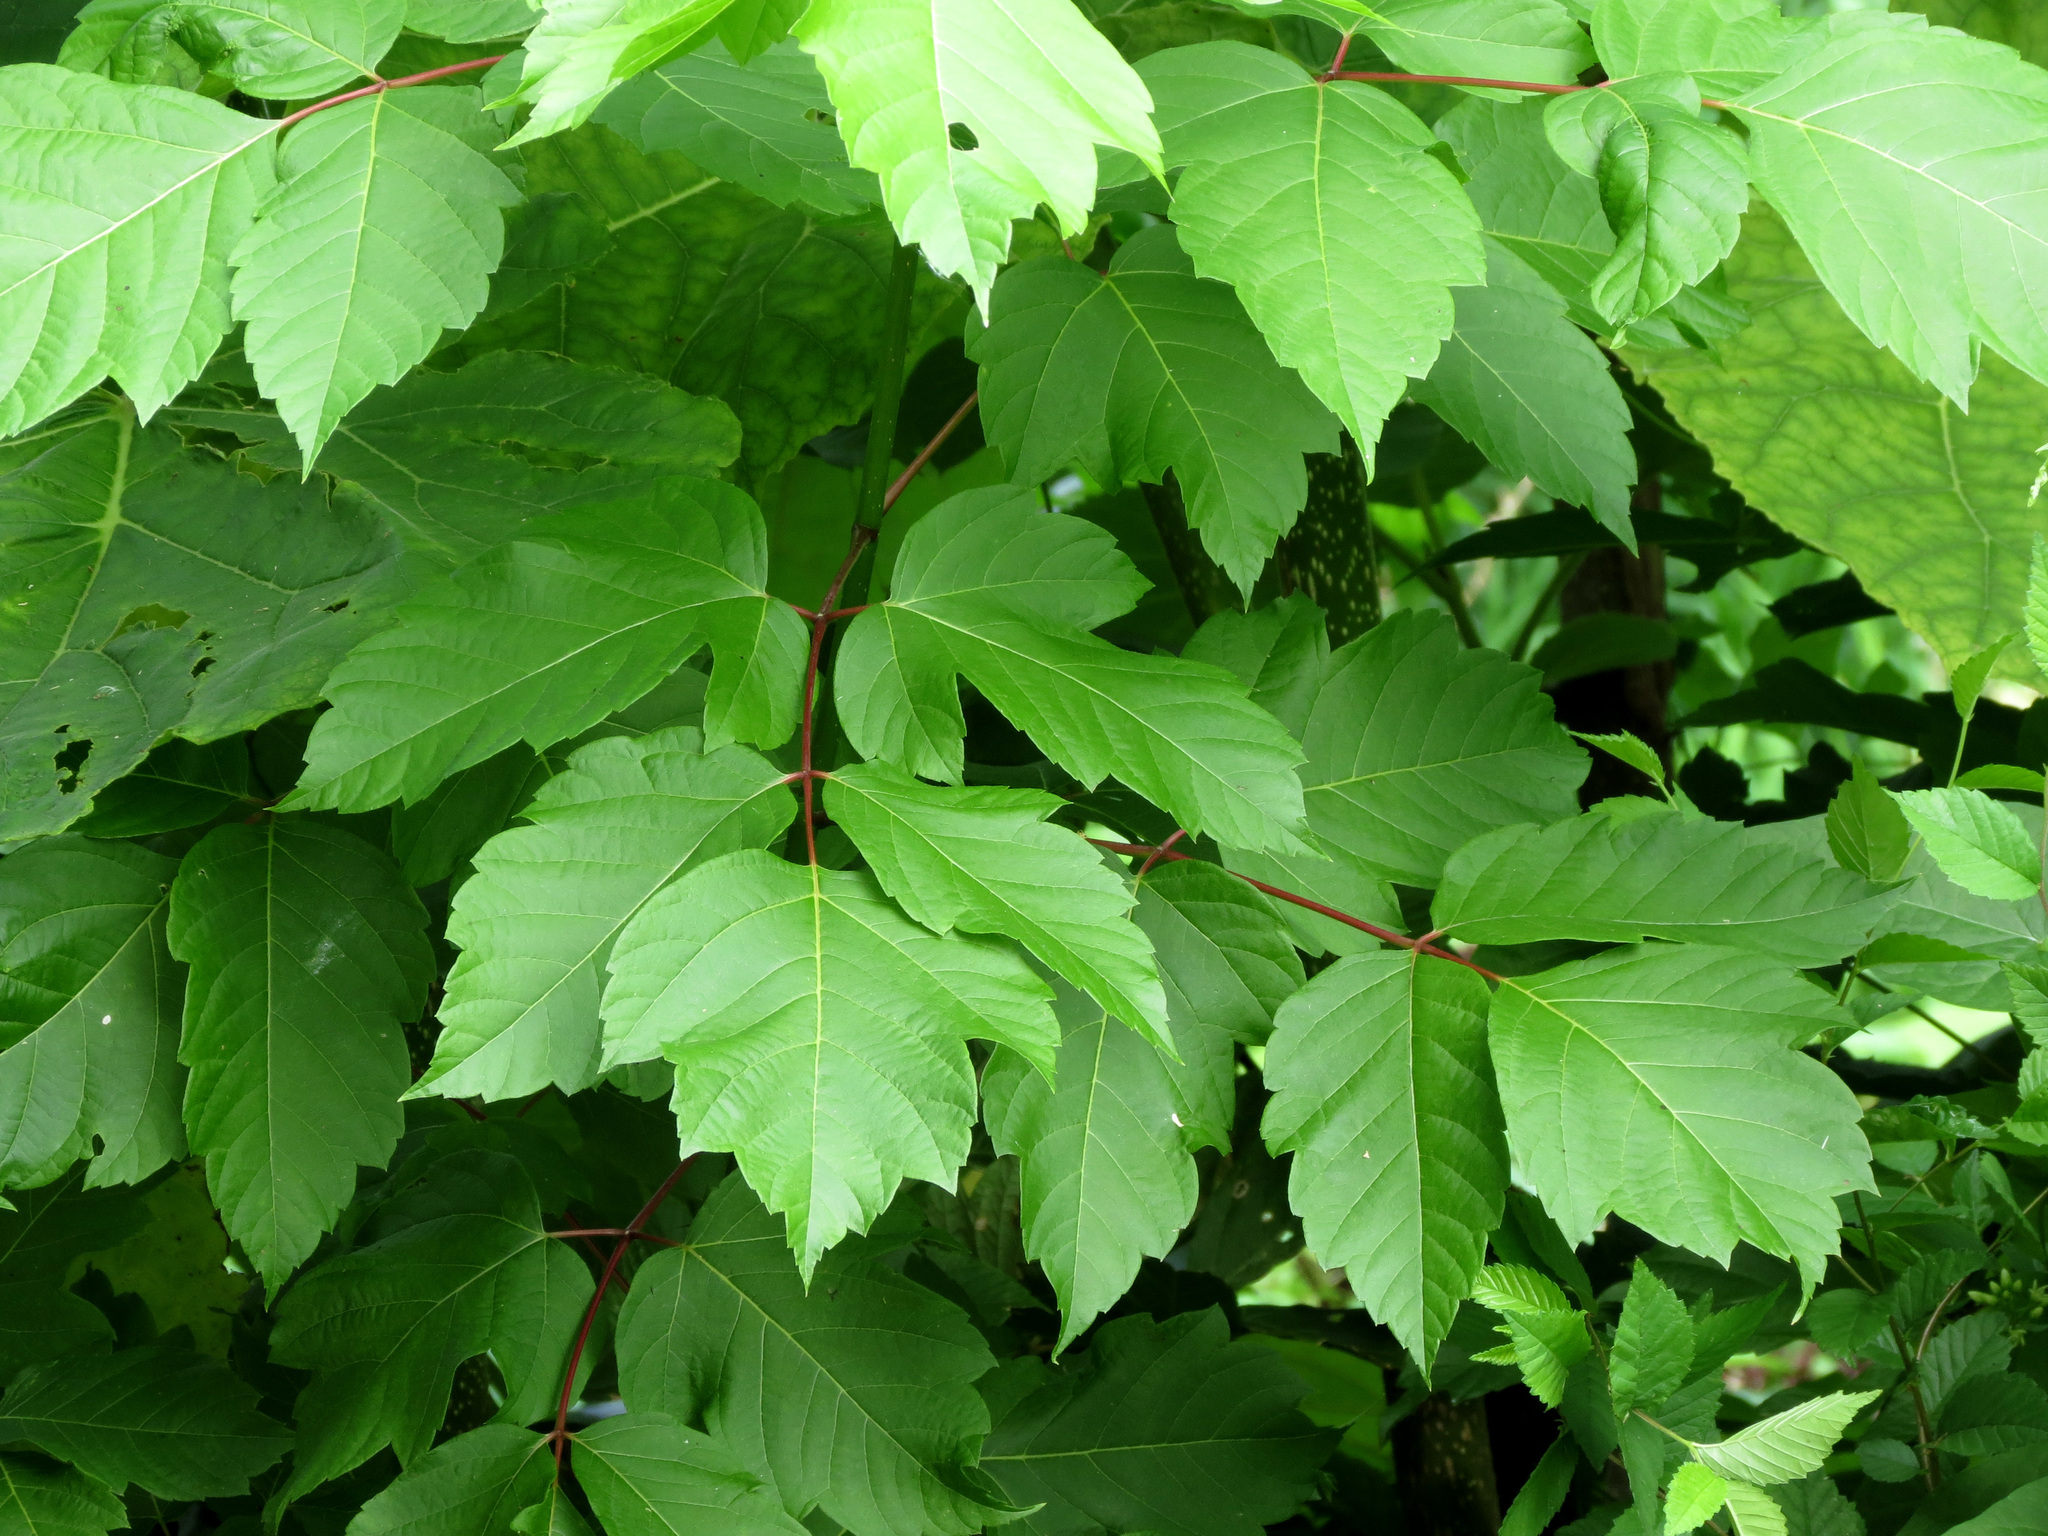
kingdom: Plantae
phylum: Tracheophyta
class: Magnoliopsida
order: Sapindales
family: Sapindaceae
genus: Acer
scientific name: Acer negundo
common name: Ashleaf maple
